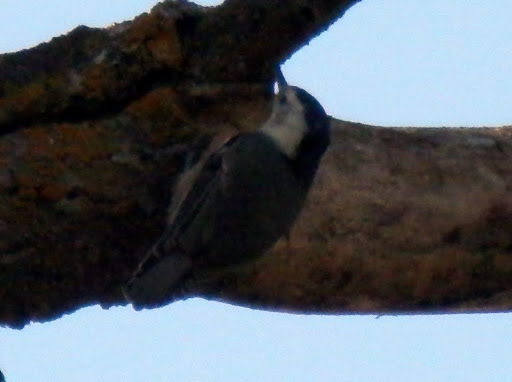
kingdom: Animalia
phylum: Chordata
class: Aves
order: Passeriformes
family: Sittidae
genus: Sitta
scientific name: Sitta carolinensis
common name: White-breasted nuthatch
